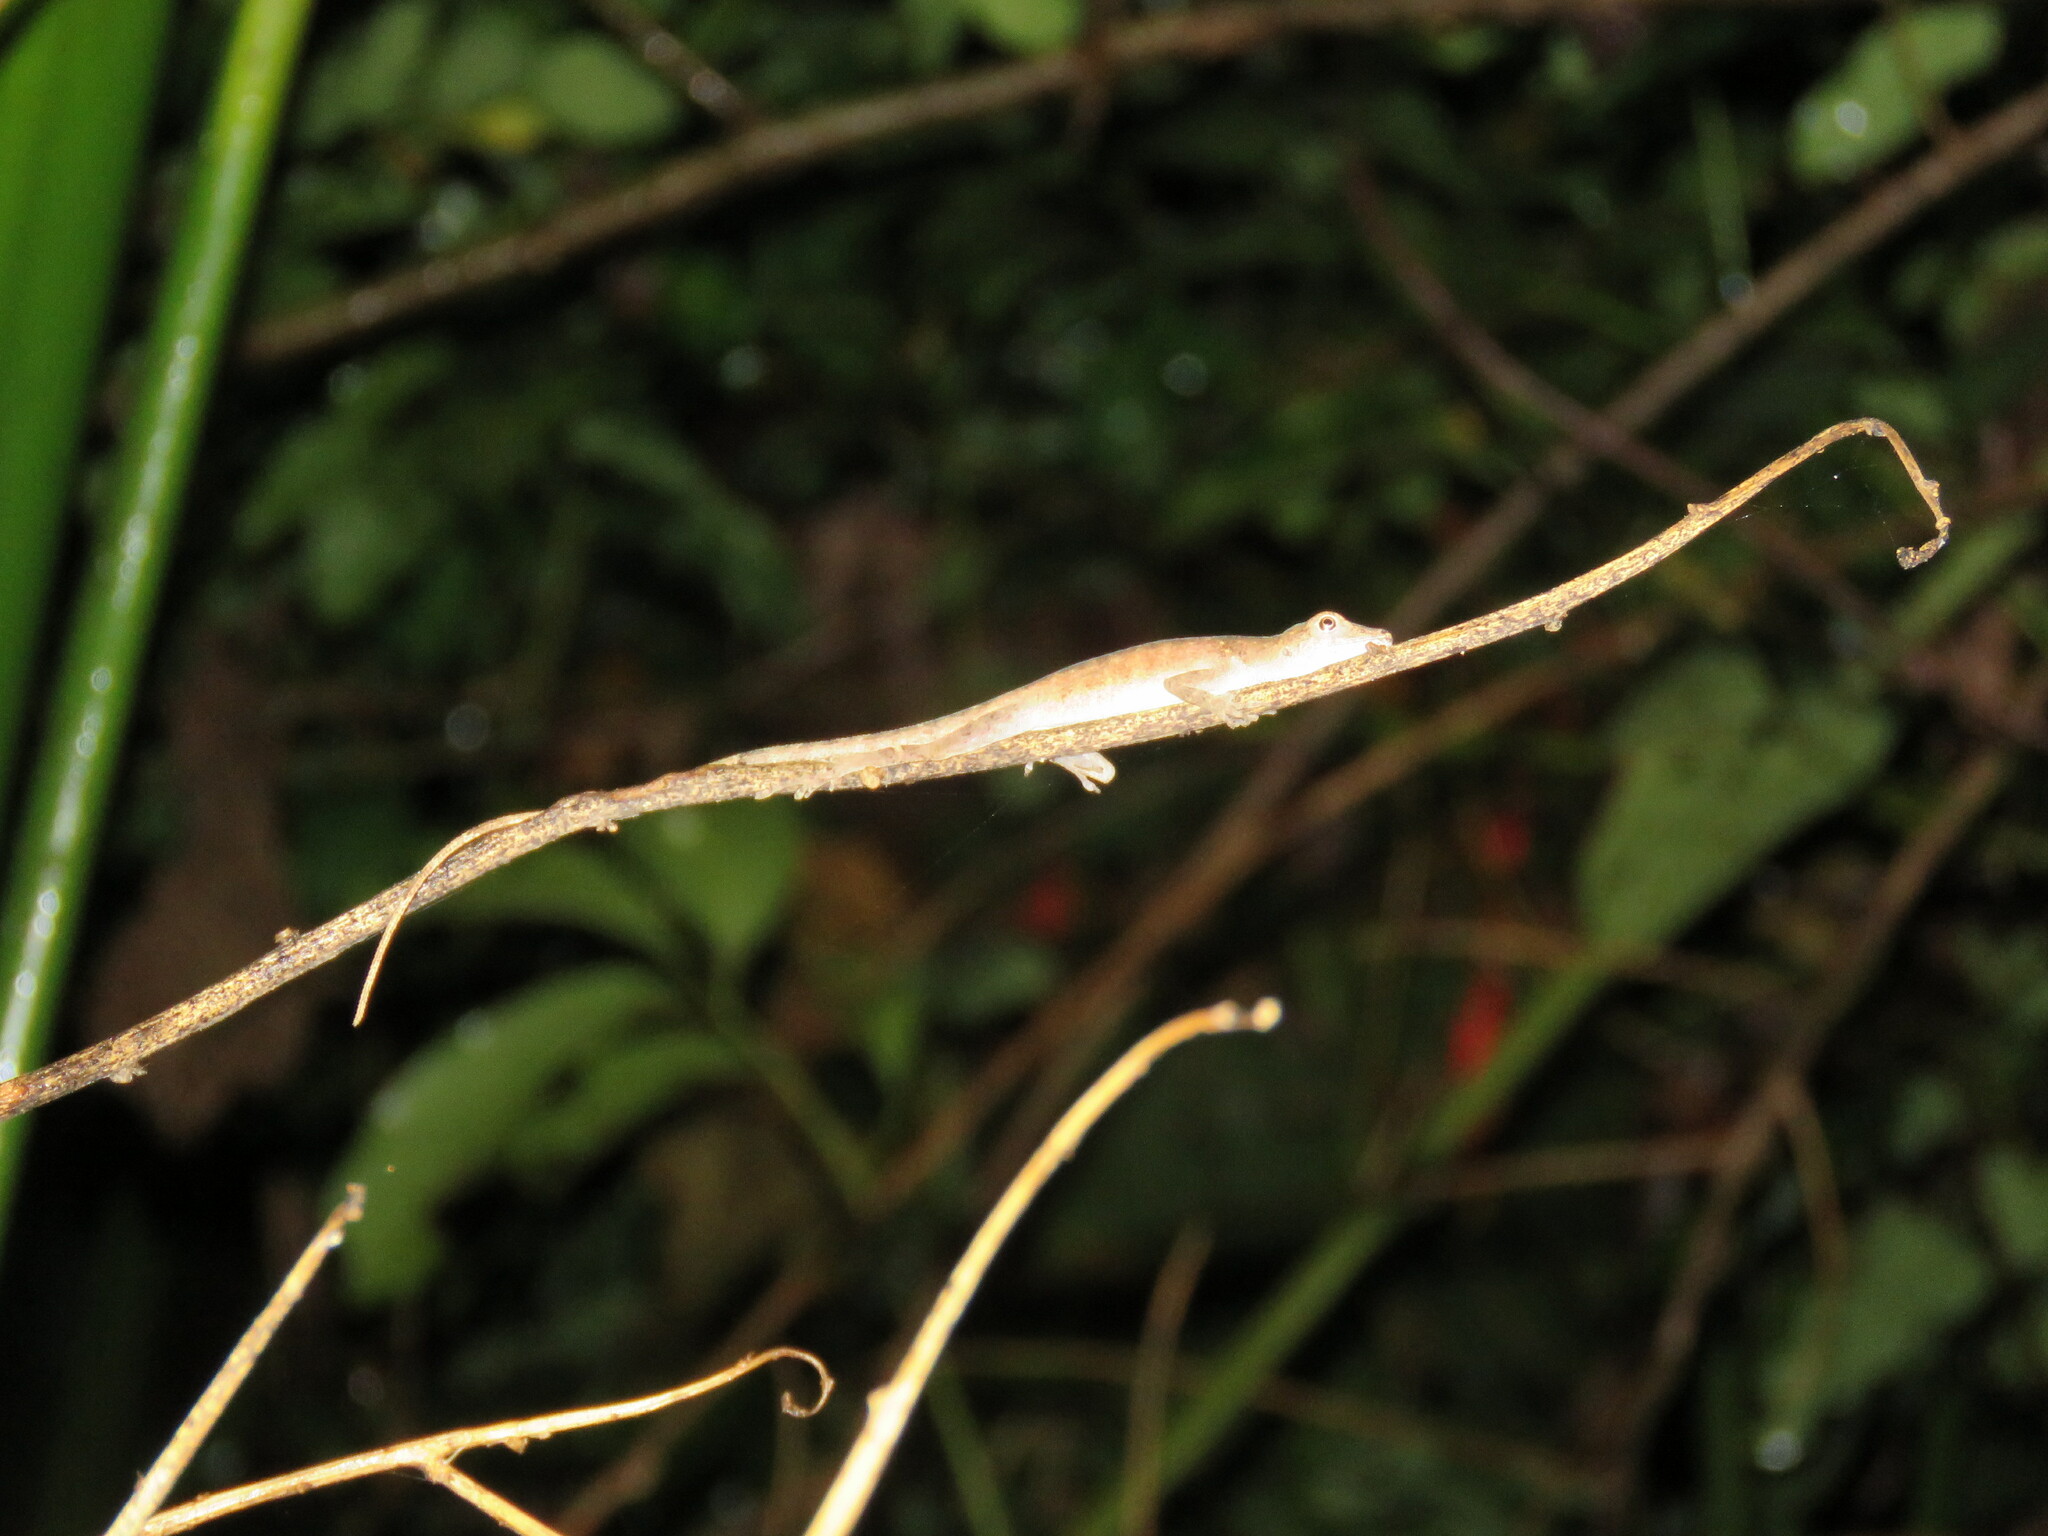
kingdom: Animalia
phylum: Chordata
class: Squamata
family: Dactyloidae
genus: Anolis
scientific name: Anolis fuscoauratus
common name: Brown-eared anole
